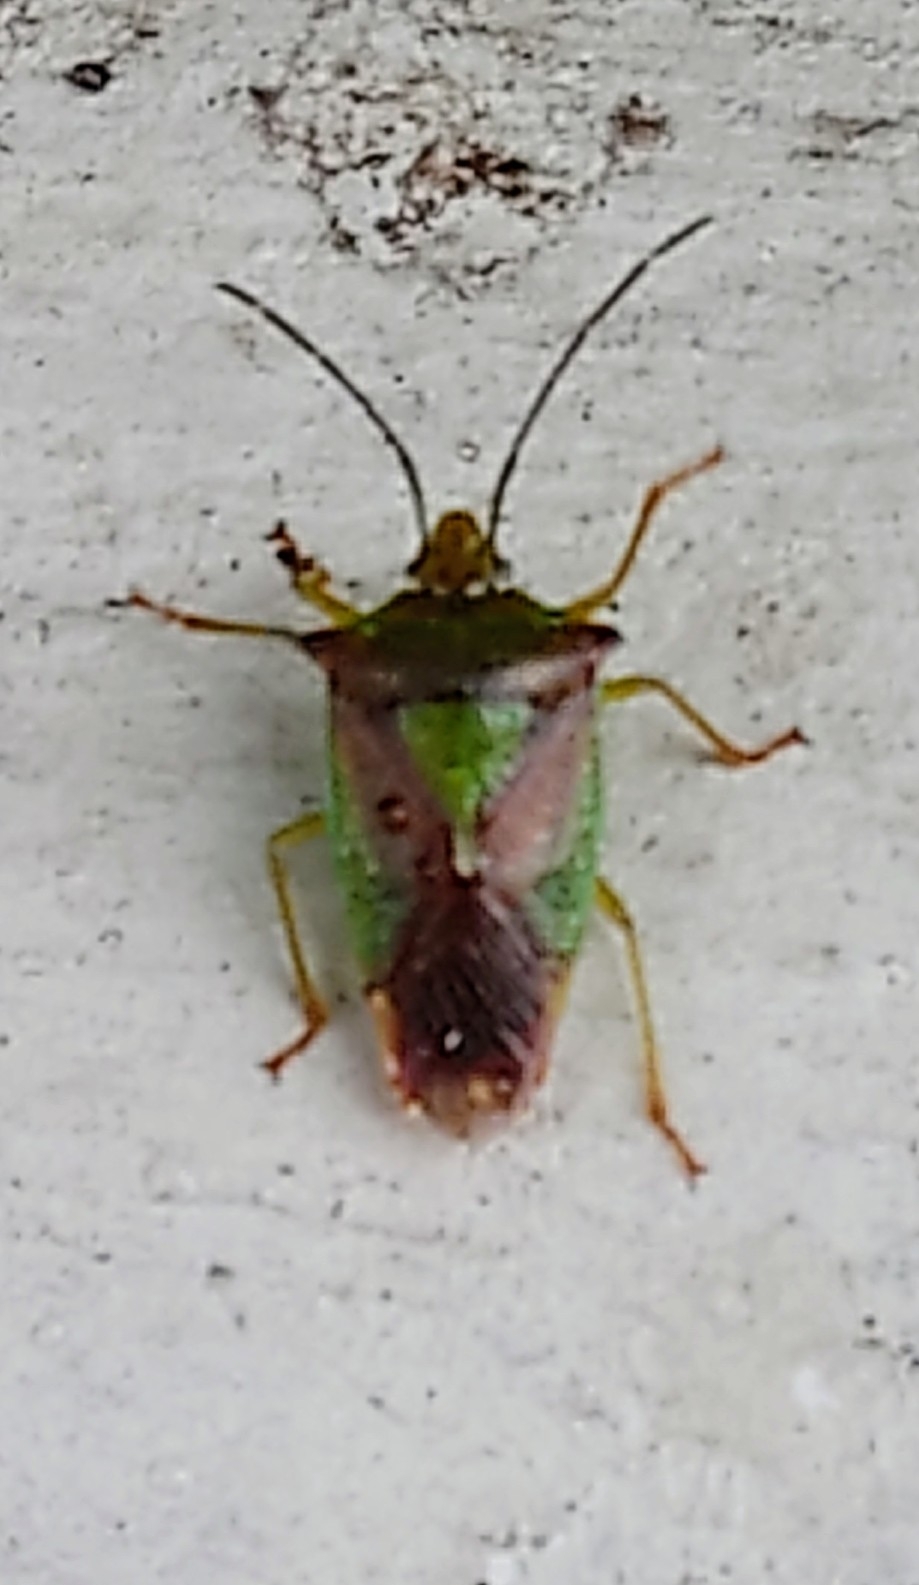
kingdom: Animalia
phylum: Arthropoda
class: Insecta
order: Hemiptera
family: Acanthosomatidae
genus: Acanthosoma
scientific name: Acanthosoma haemorrhoidale
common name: Hawthorn shieldbug
